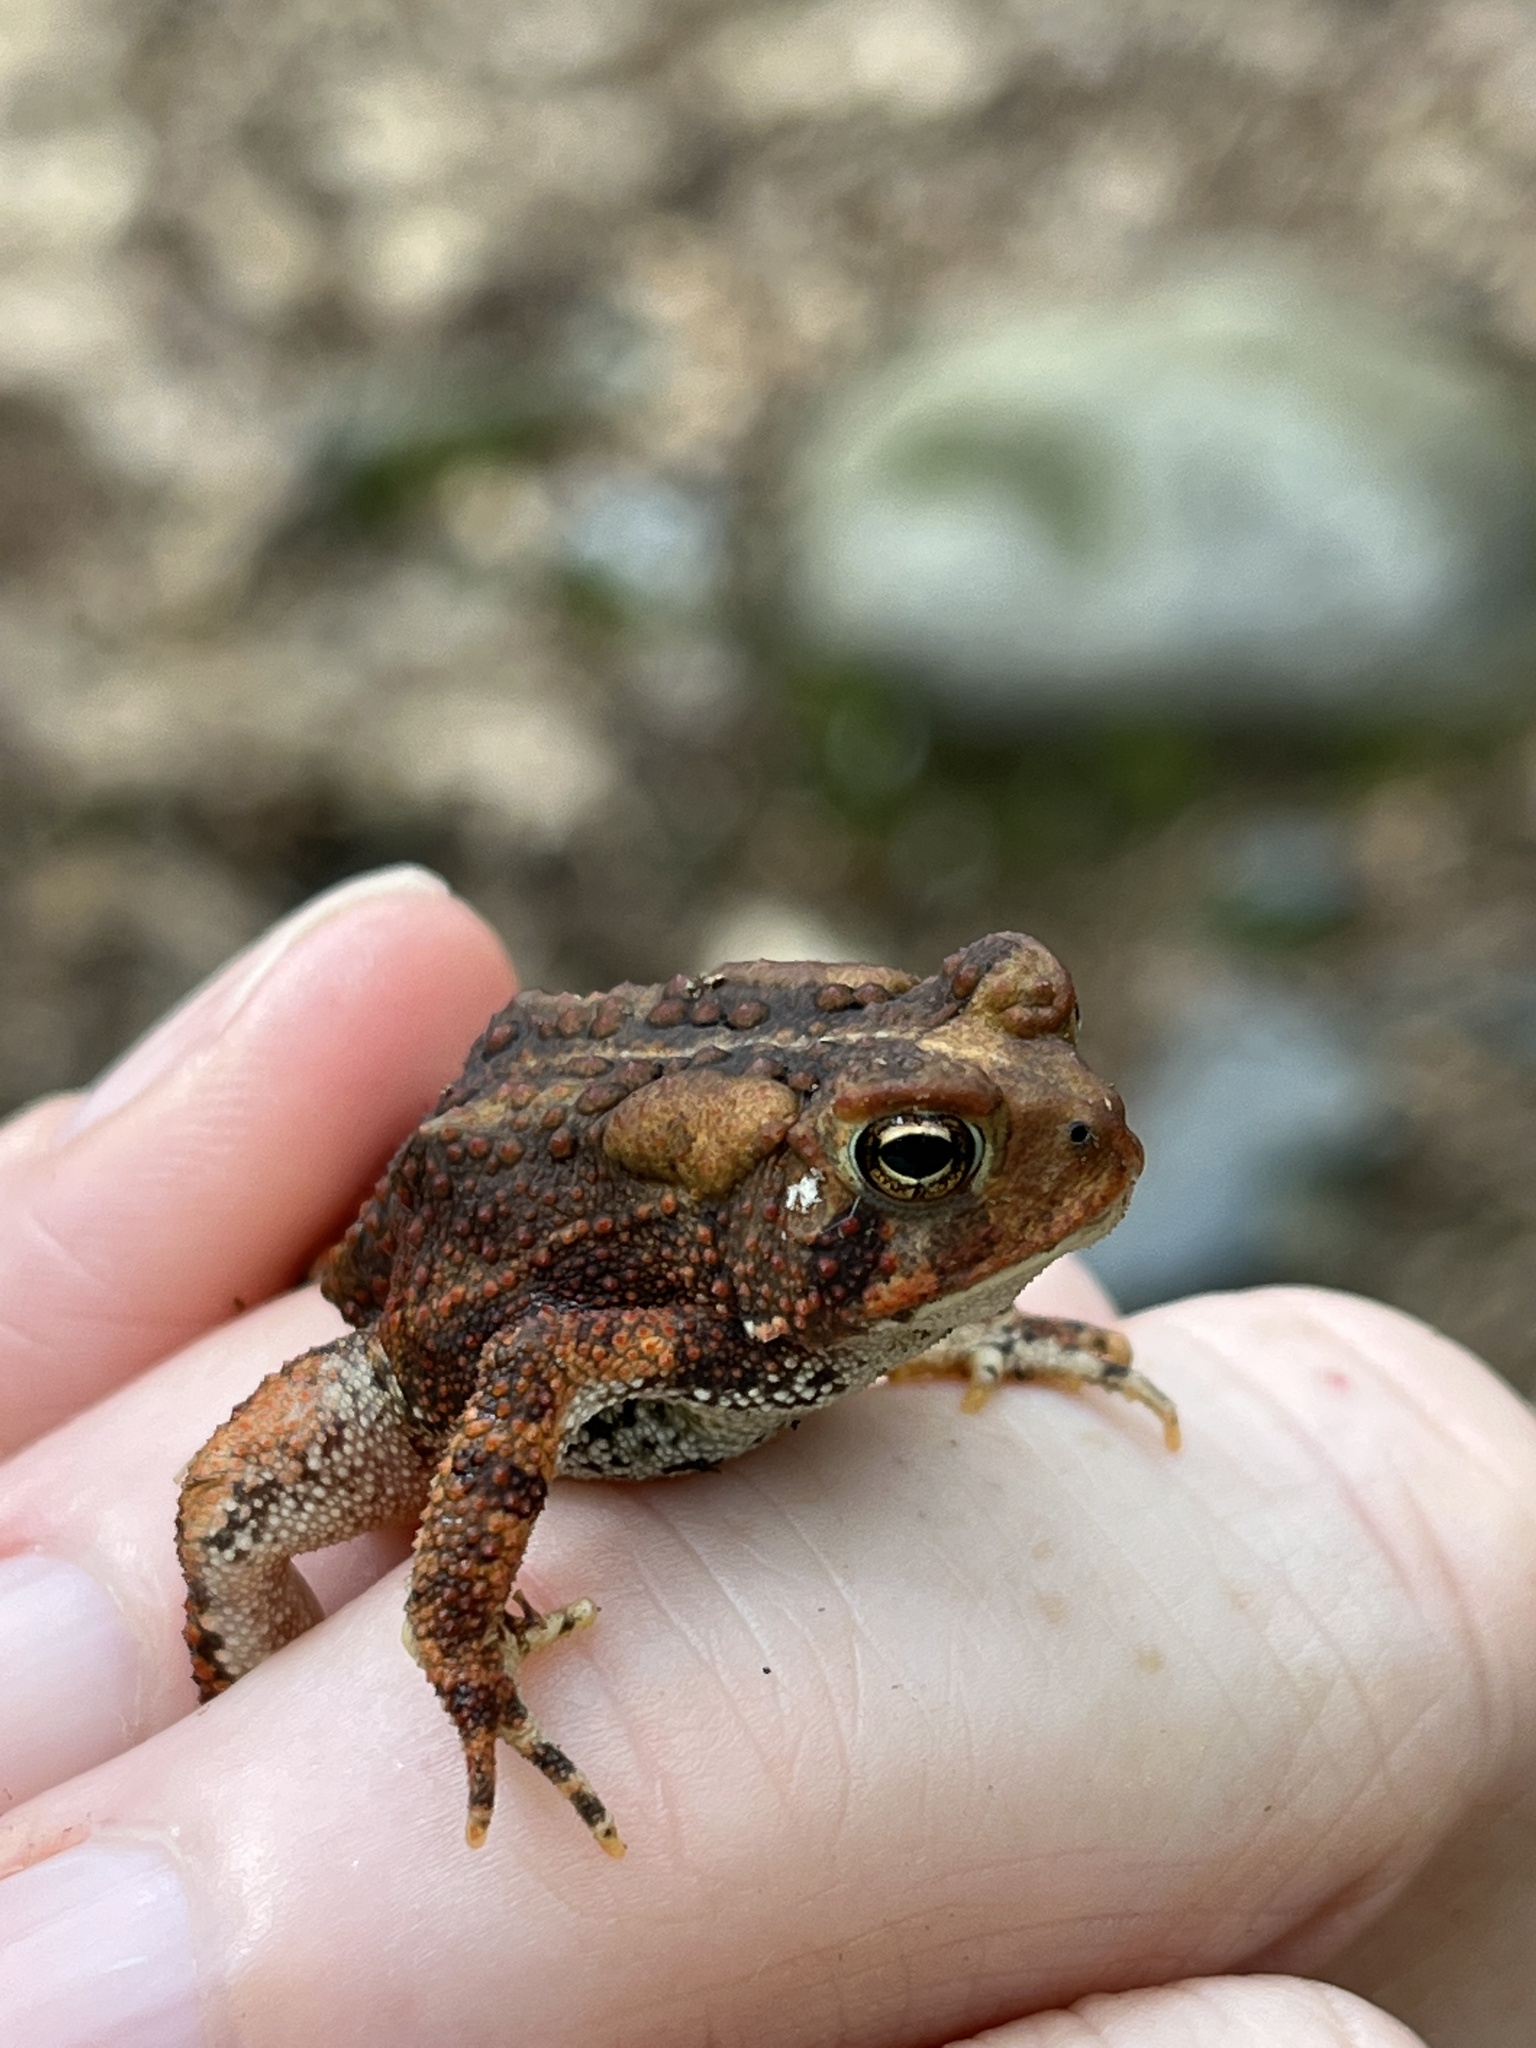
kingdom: Animalia
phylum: Chordata
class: Amphibia
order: Anura
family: Bufonidae
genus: Anaxyrus
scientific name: Anaxyrus americanus
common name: American toad
